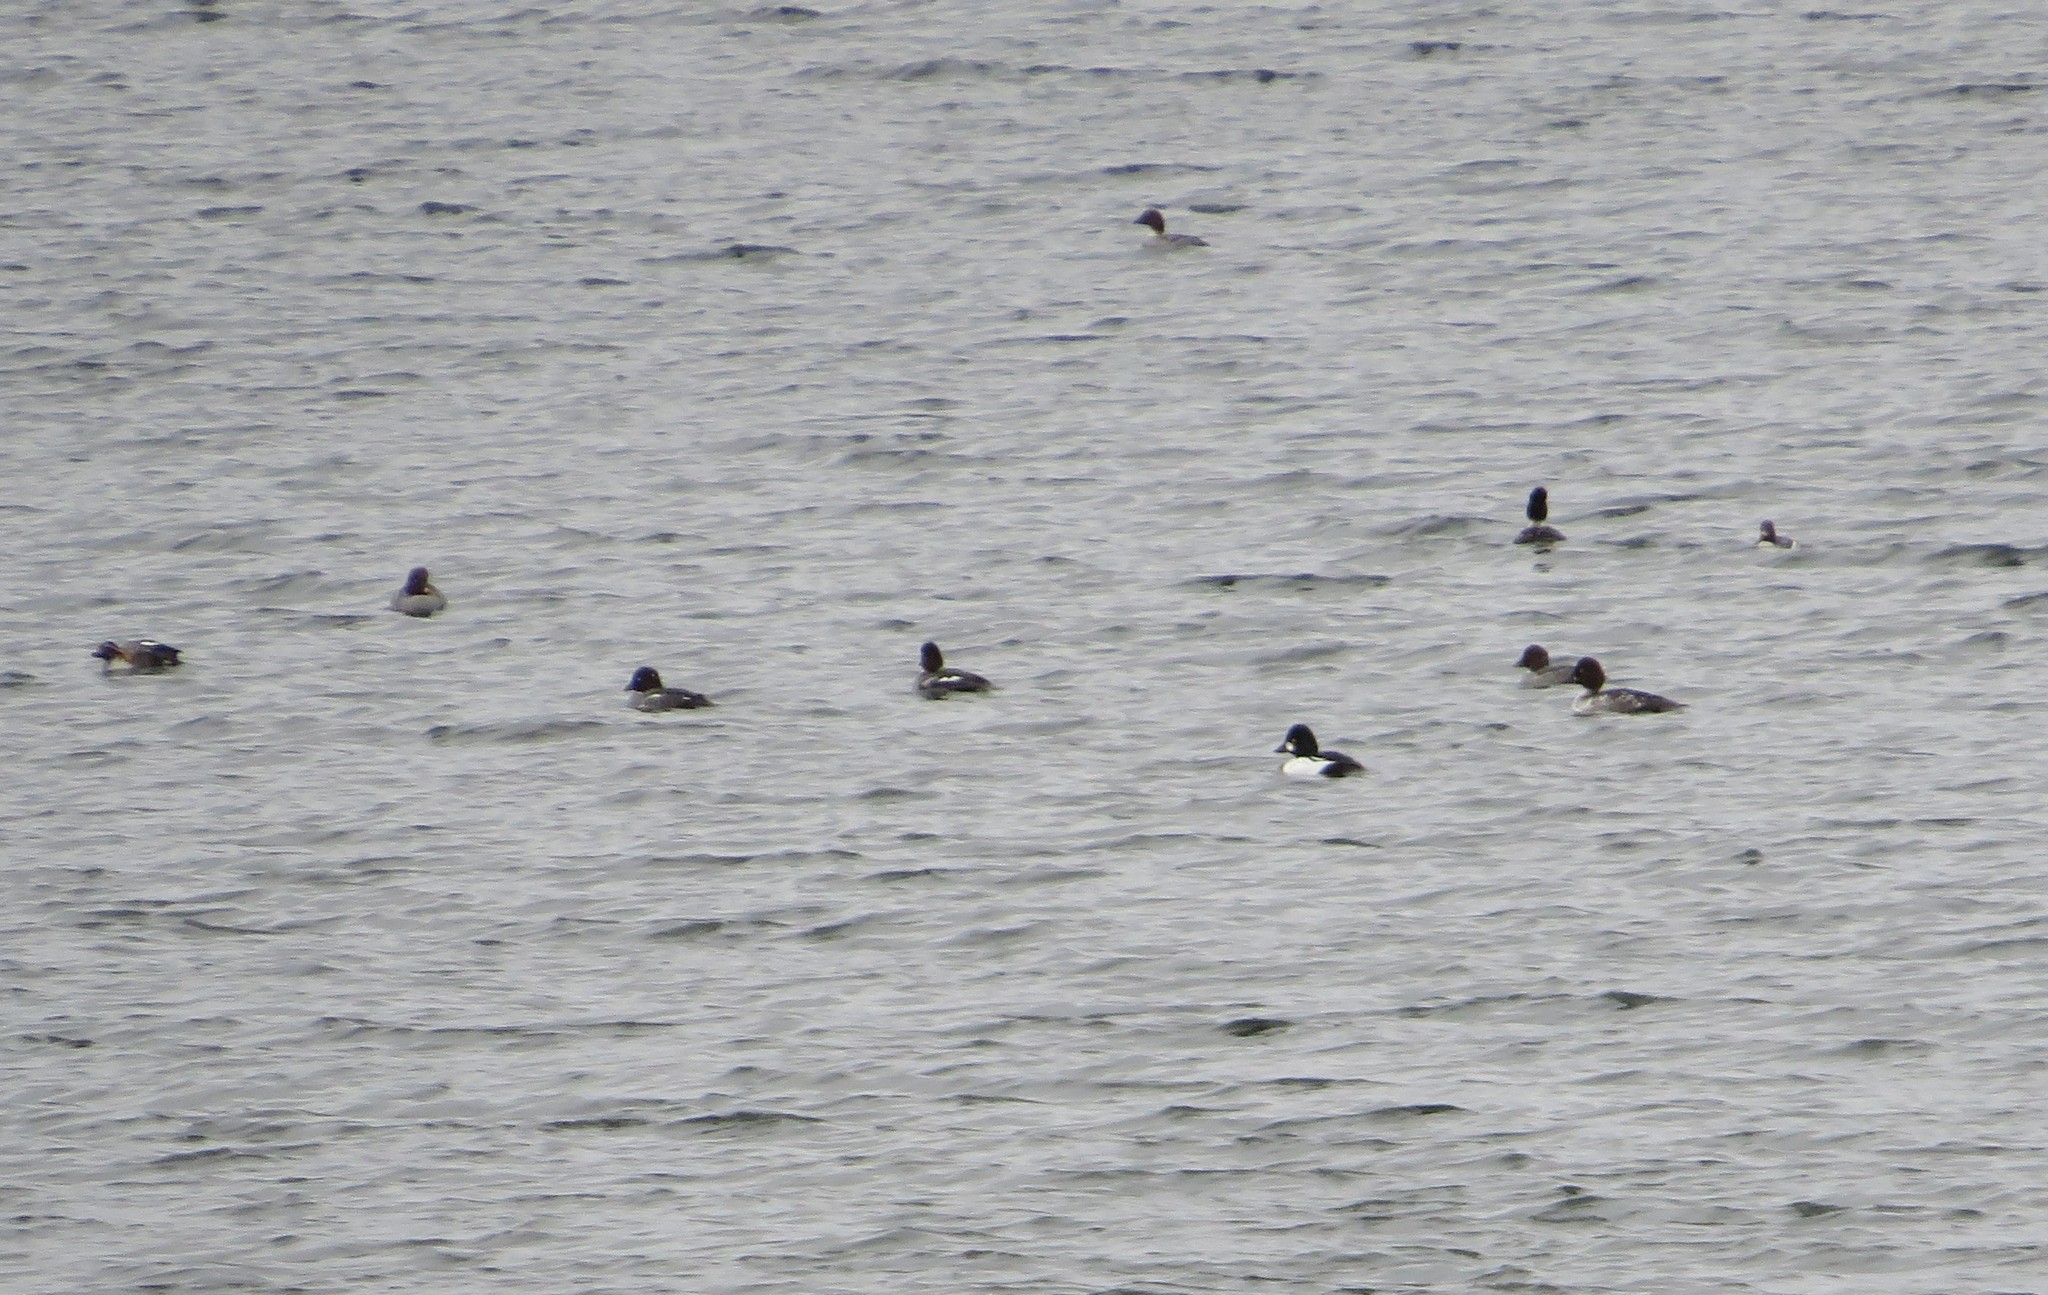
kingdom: Animalia
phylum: Chordata
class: Aves
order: Anseriformes
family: Anatidae
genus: Bucephala
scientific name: Bucephala clangula
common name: Common goldeneye
